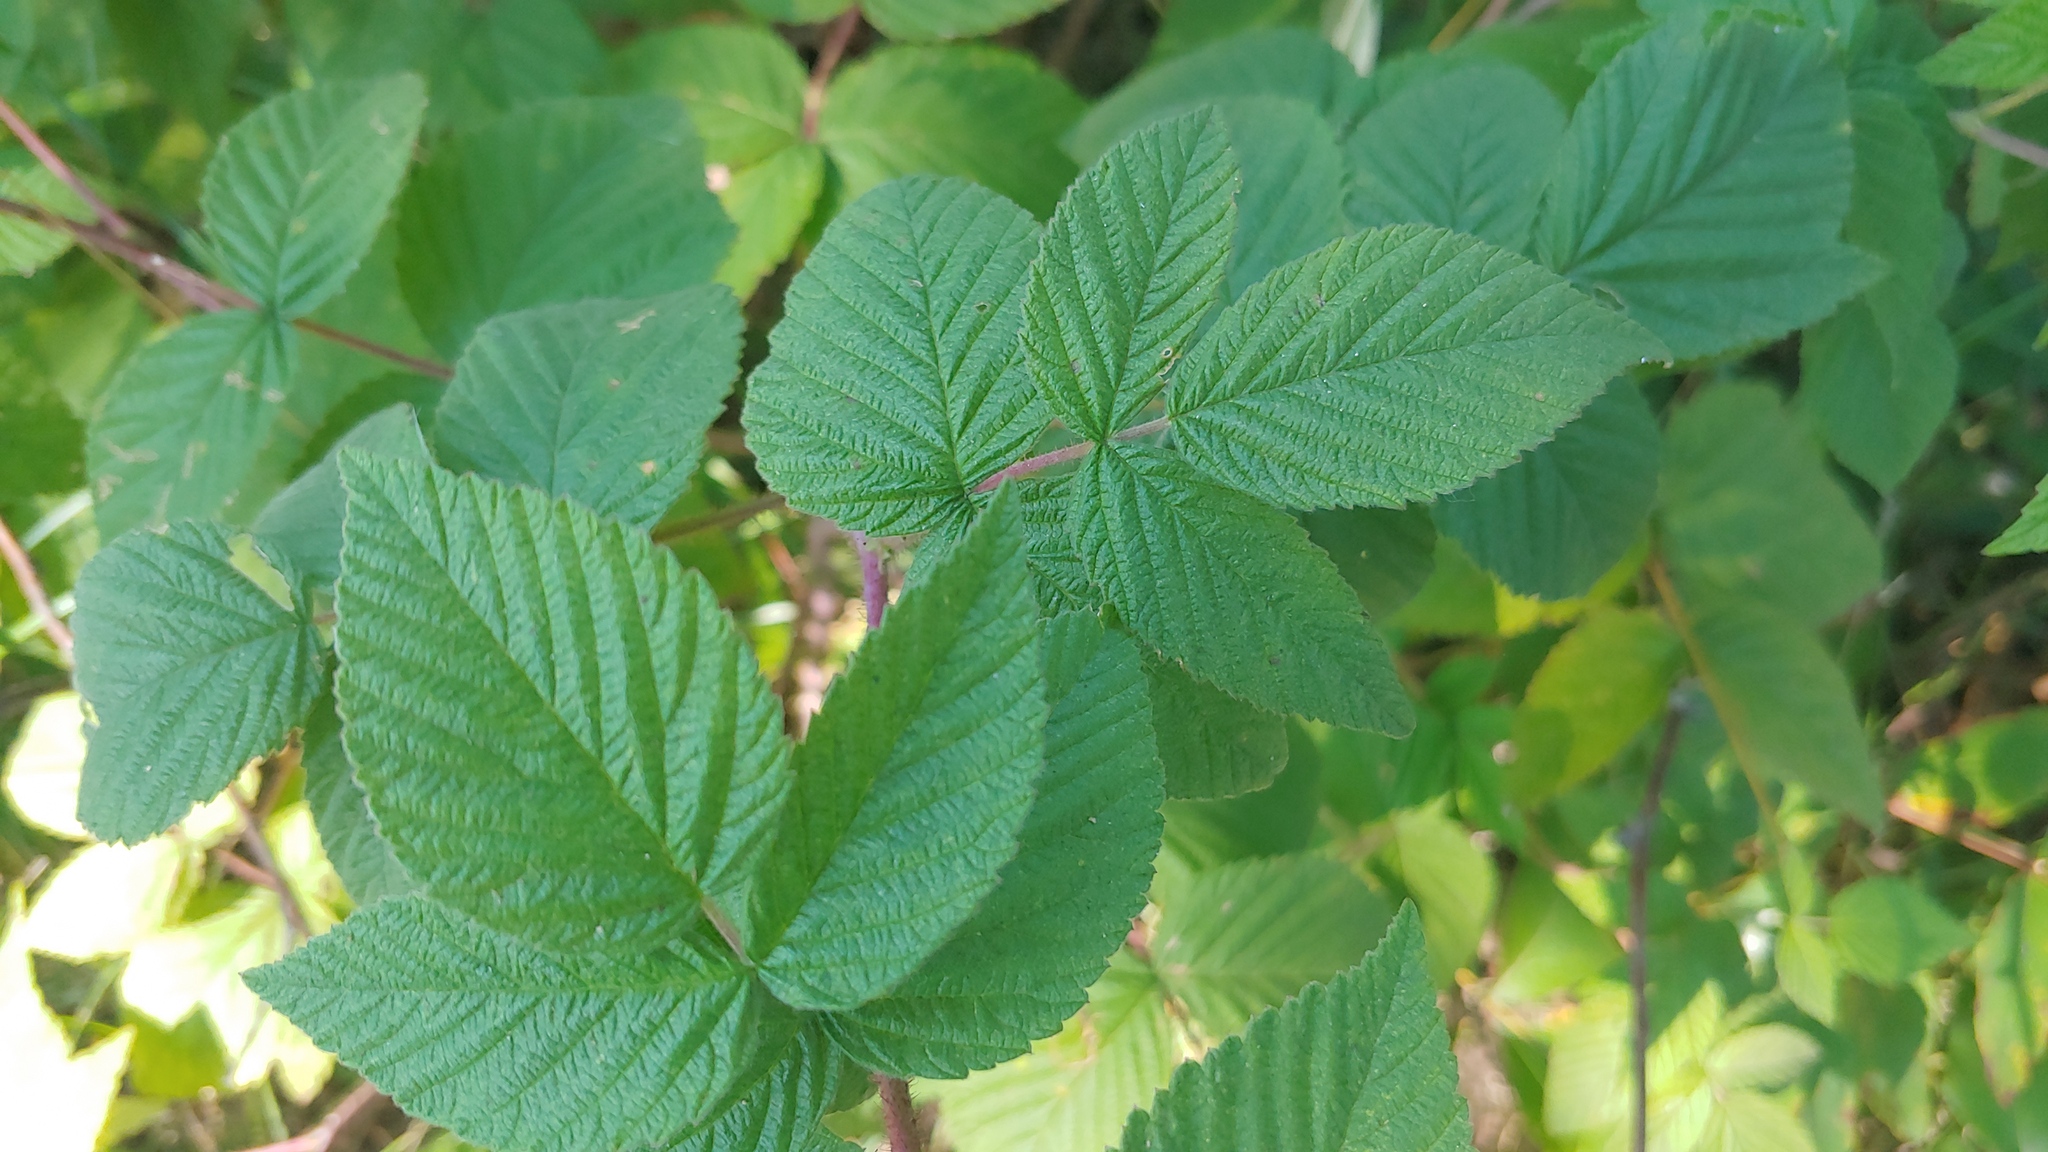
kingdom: Plantae
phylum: Tracheophyta
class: Magnoliopsida
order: Rosales
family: Rosaceae
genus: Rubus
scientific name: Rubus idaeus
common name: Raspberry
